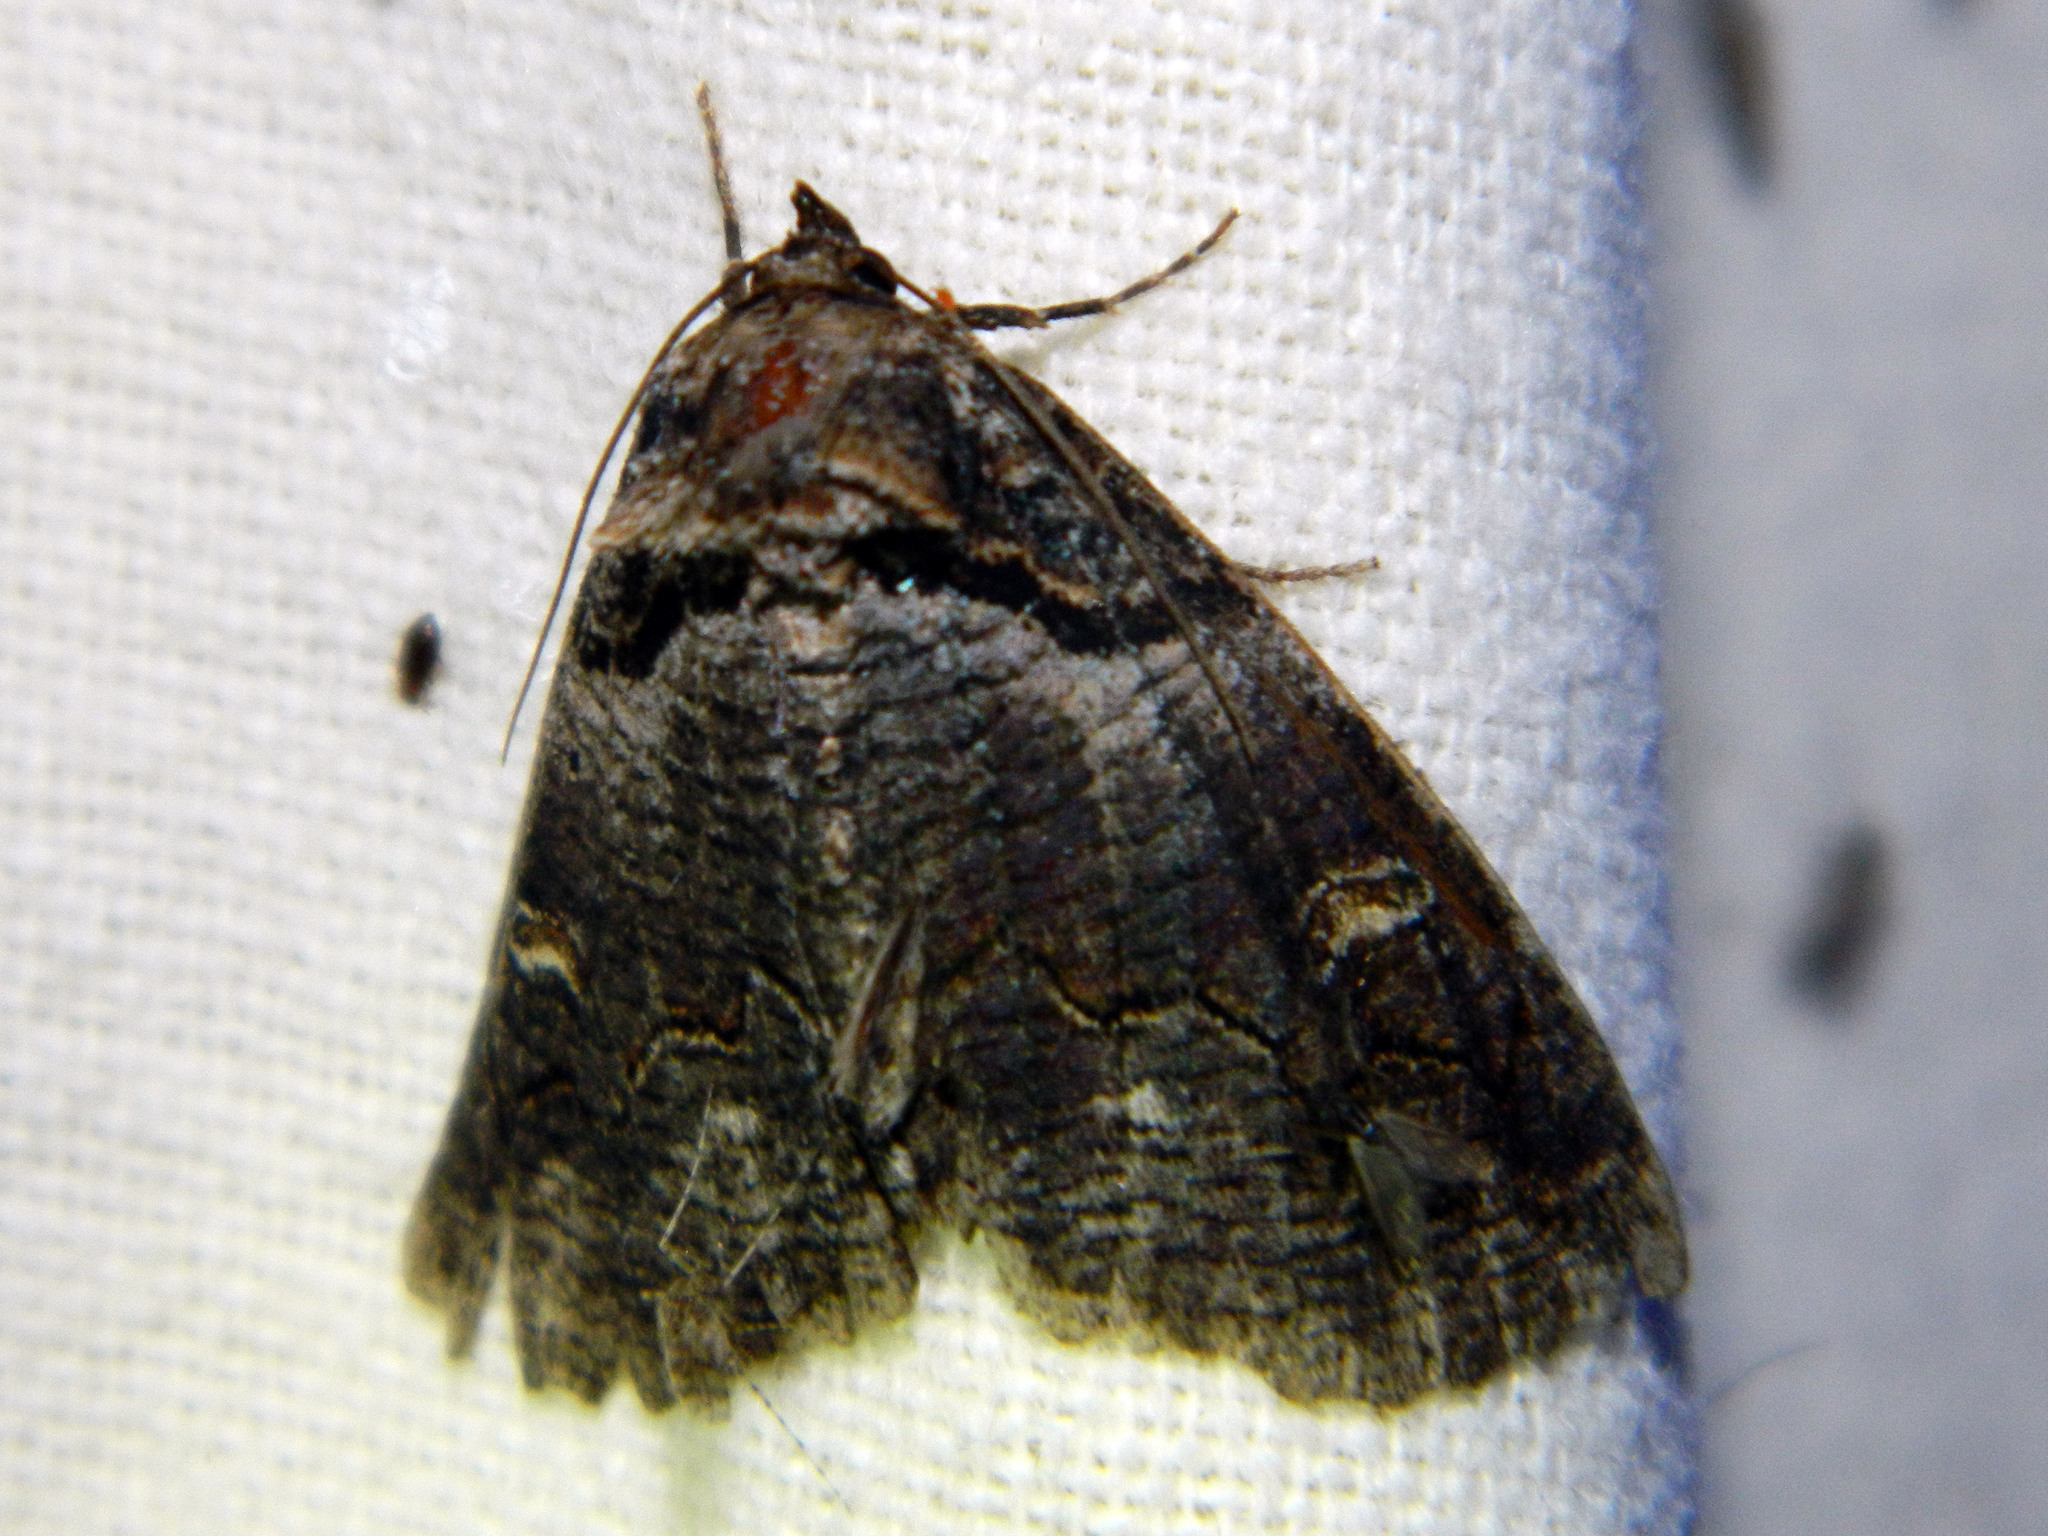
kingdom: Animalia
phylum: Arthropoda
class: Insecta
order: Lepidoptera
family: Erebidae
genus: Zale
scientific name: Zale intenta
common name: Intent zale moth
